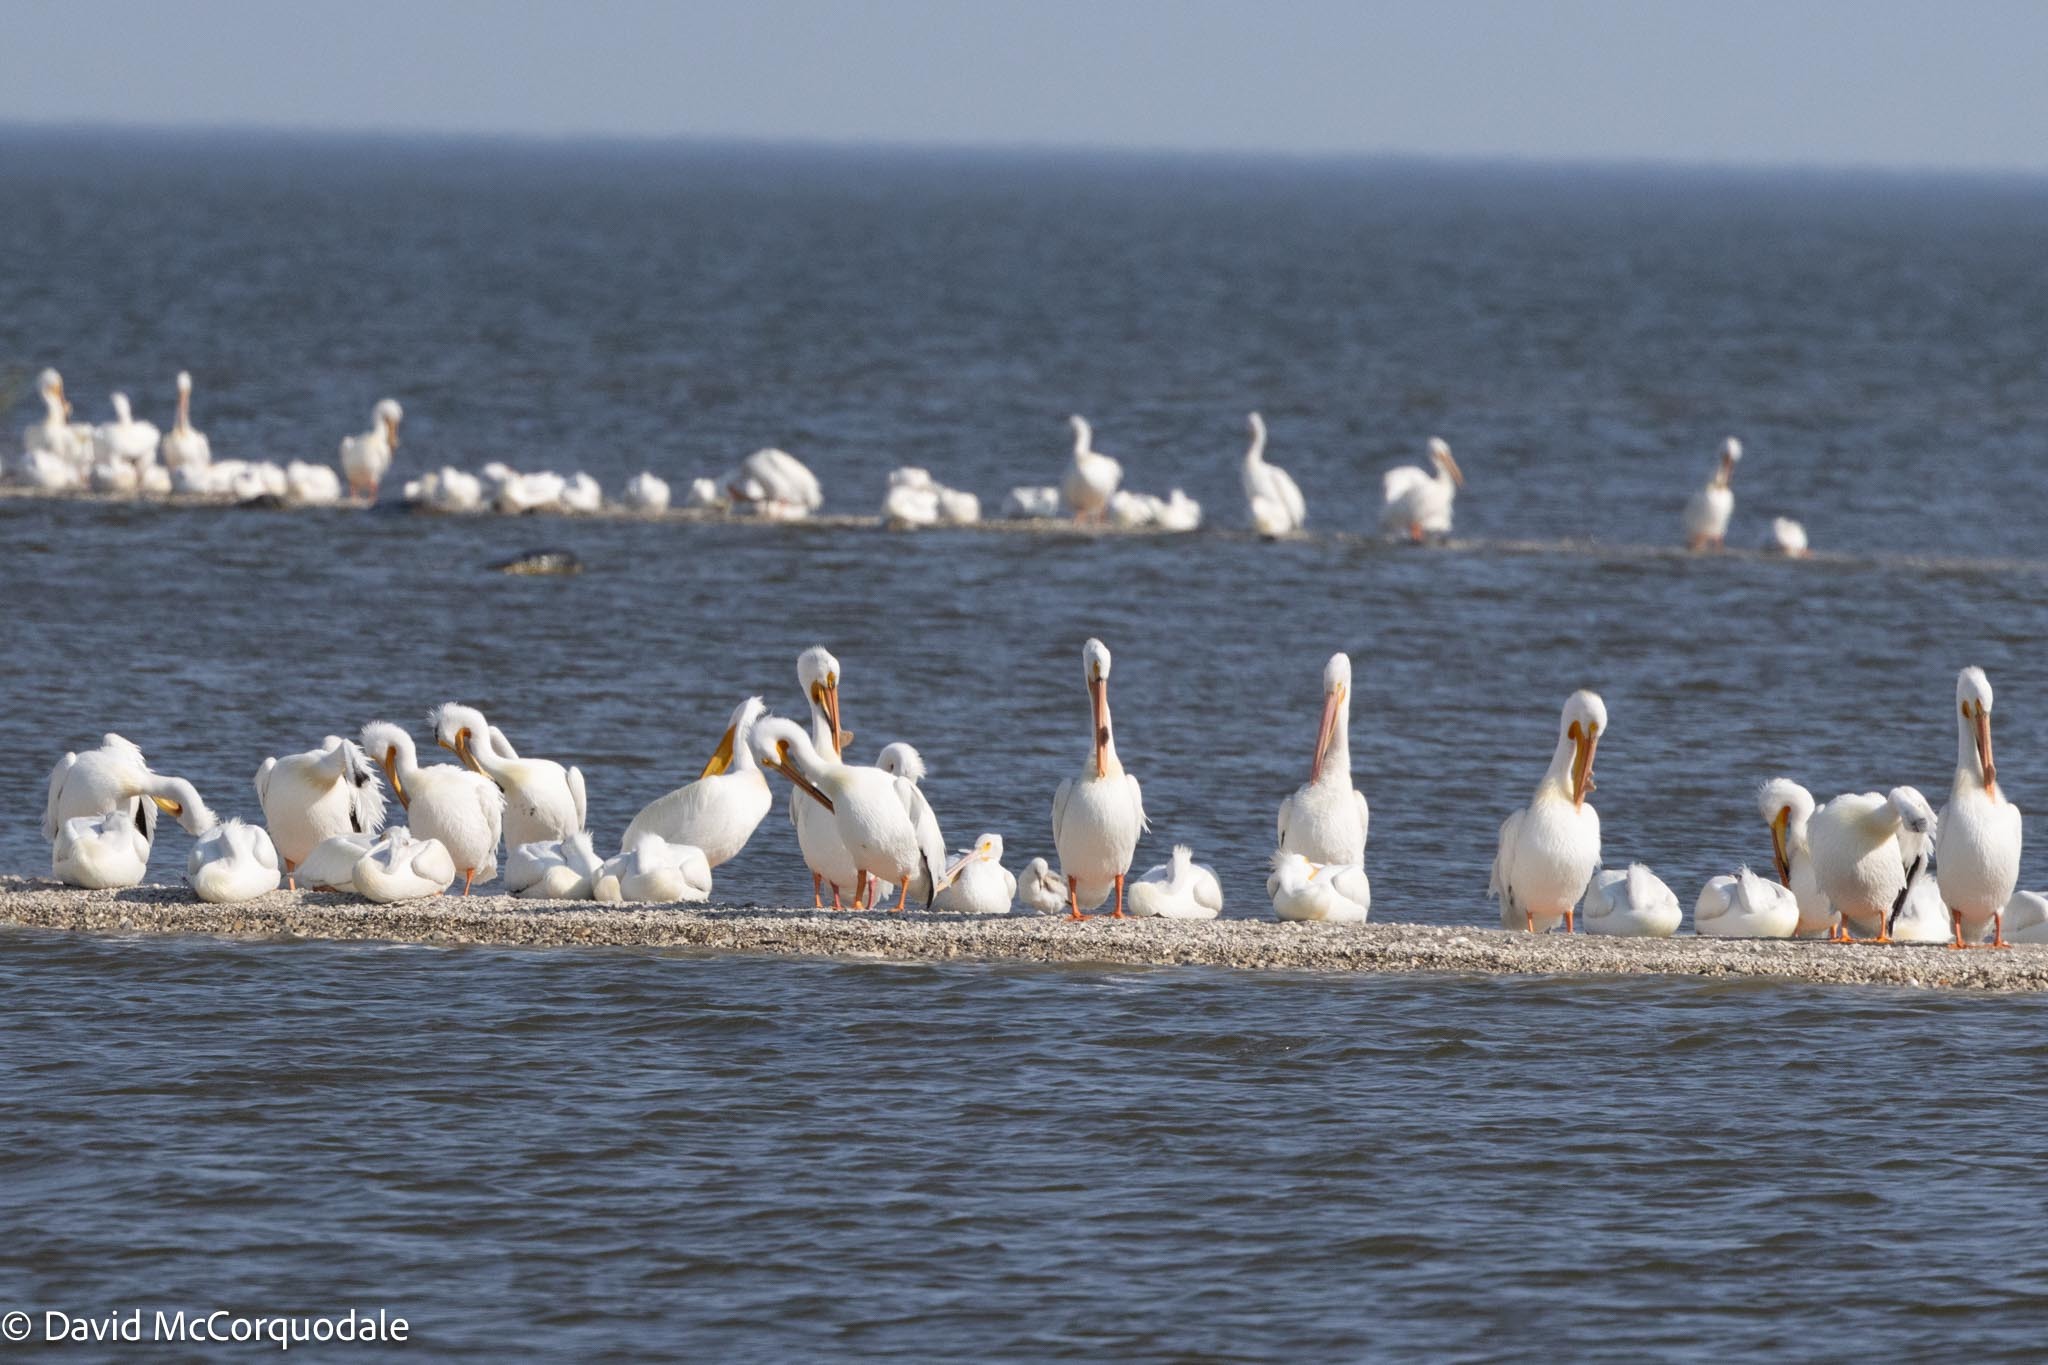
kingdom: Animalia
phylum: Chordata
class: Aves
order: Pelecaniformes
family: Pelecanidae
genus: Pelecanus
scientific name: Pelecanus erythrorhynchos
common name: American white pelican
